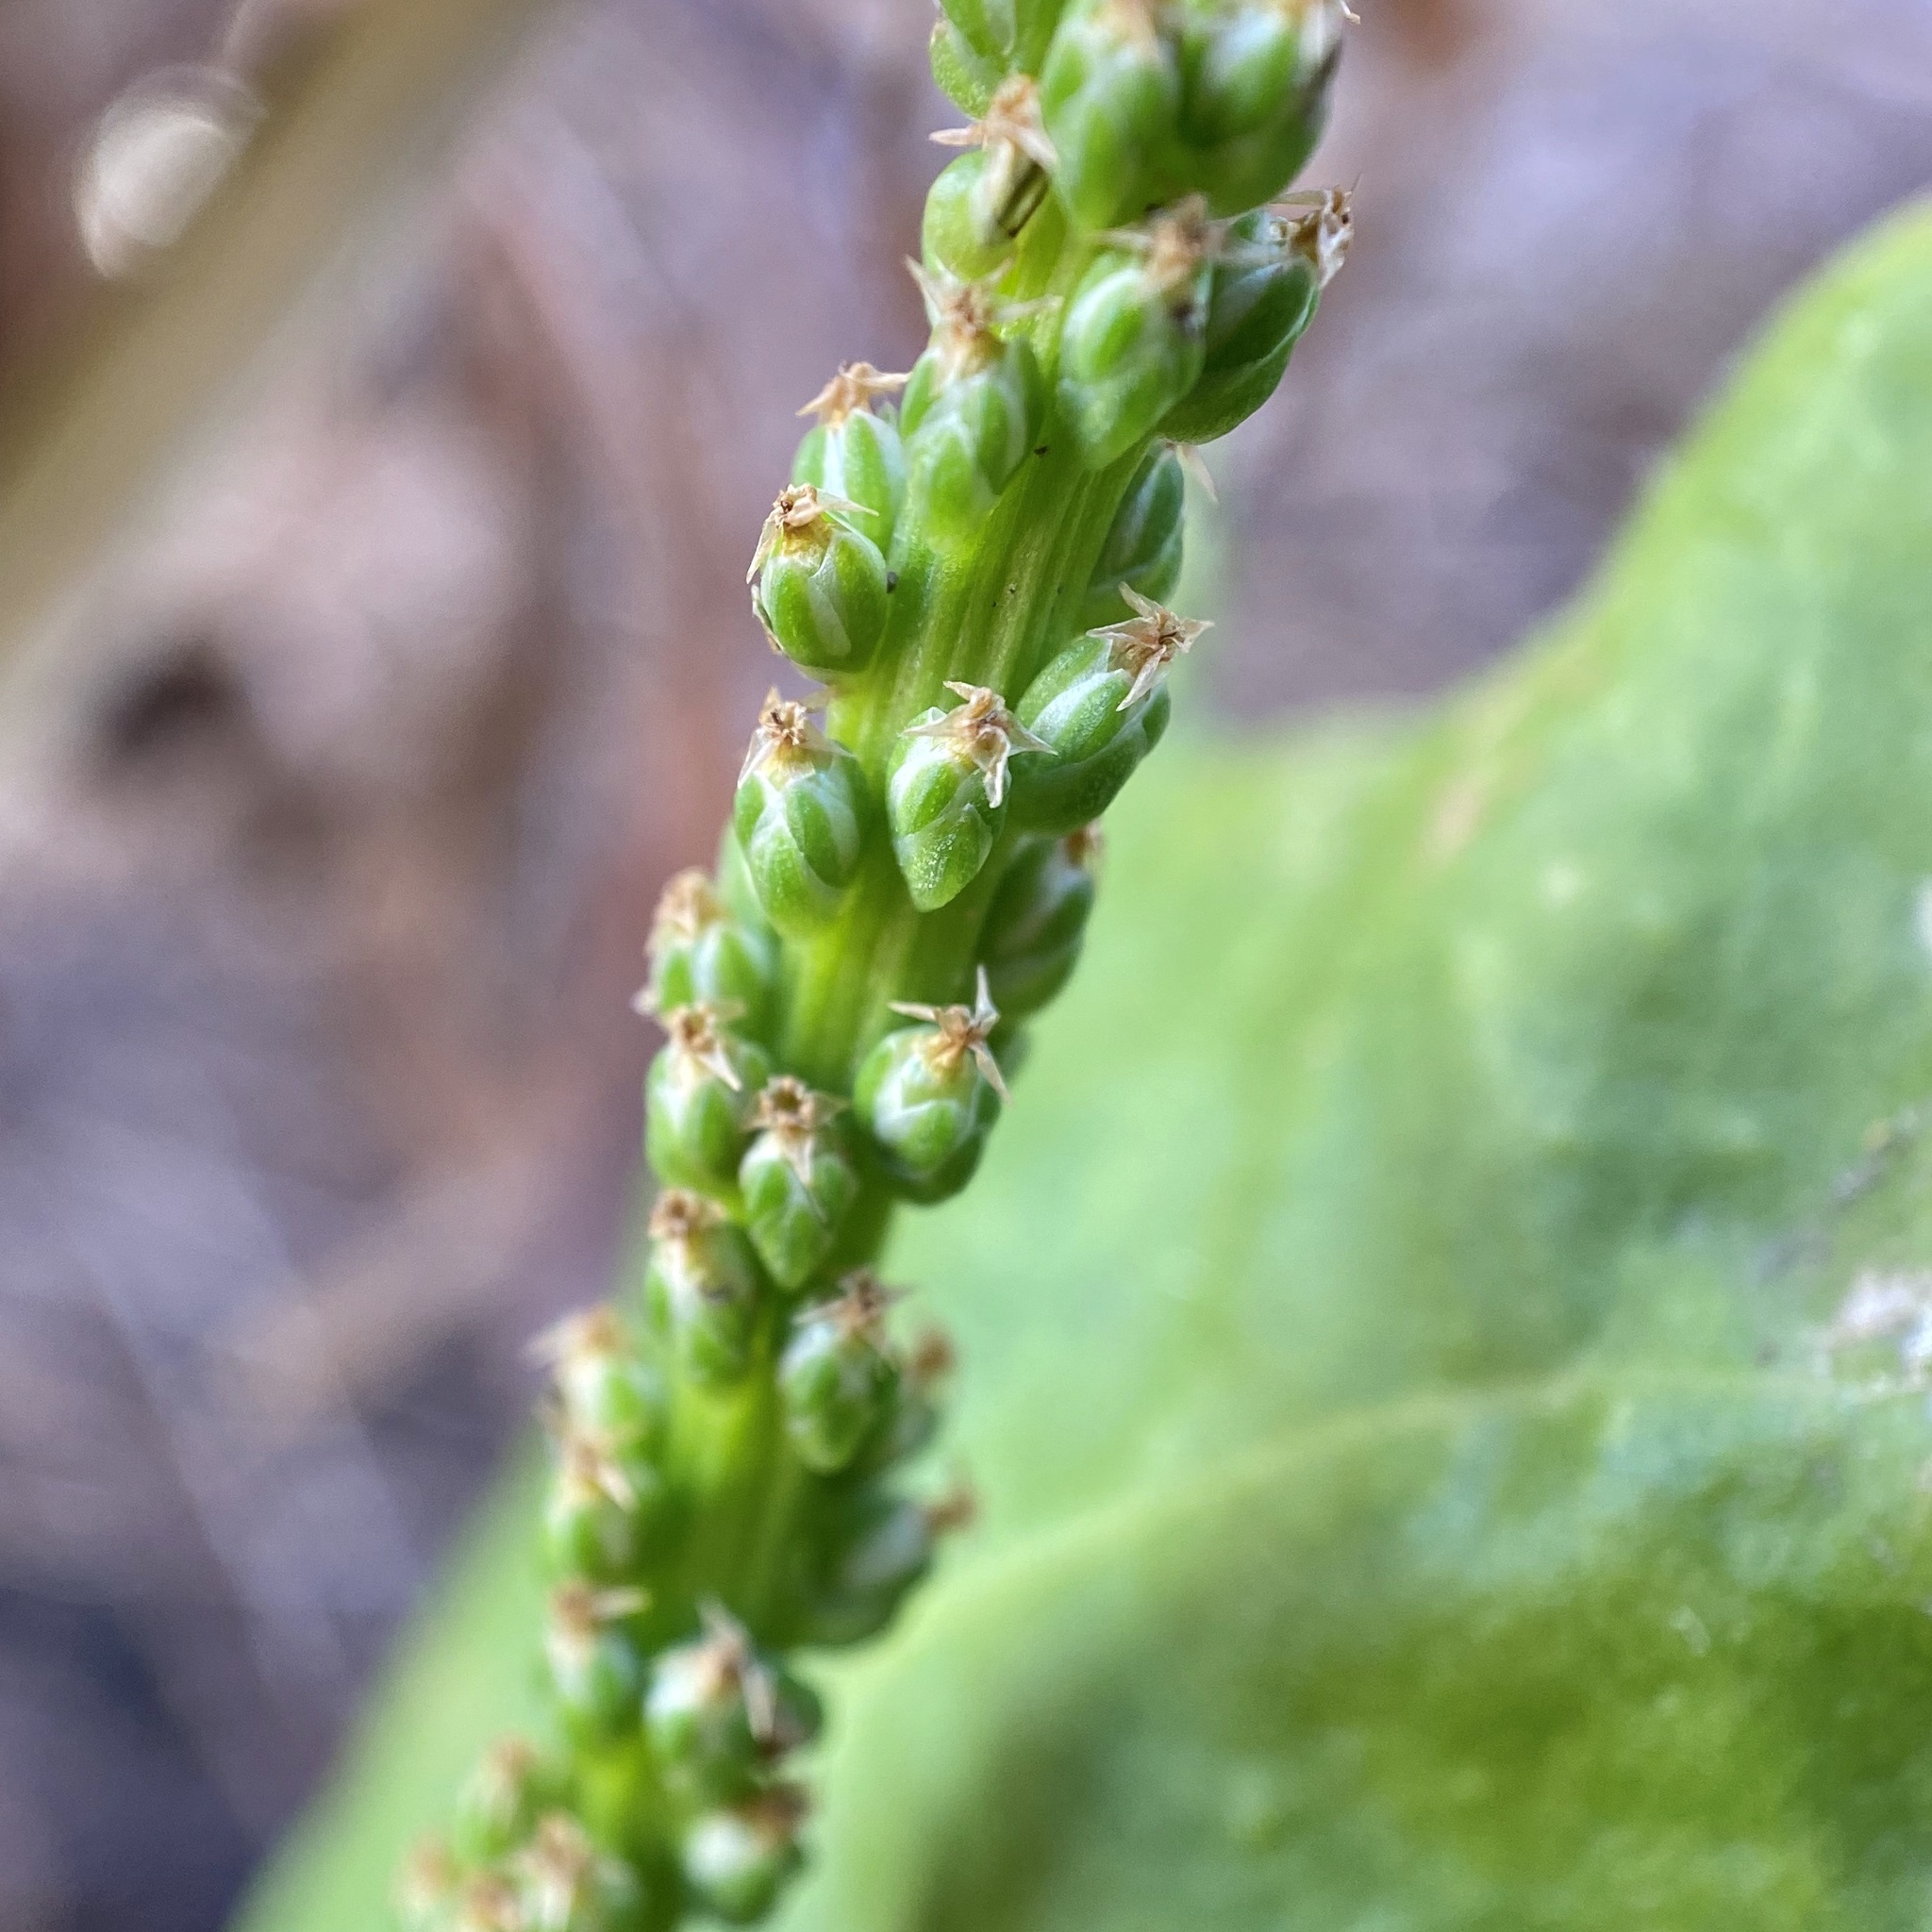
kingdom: Plantae
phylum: Tracheophyta
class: Magnoliopsida
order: Lamiales
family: Plantaginaceae
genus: Plantago
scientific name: Plantago major
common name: Common plantain
